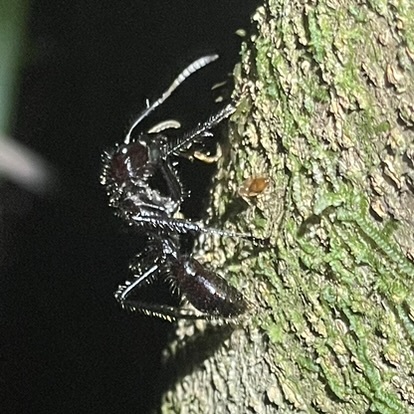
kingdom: Animalia
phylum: Arthropoda
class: Insecta
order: Hymenoptera
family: Formicidae
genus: Paraponera
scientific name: Paraponera clavata
